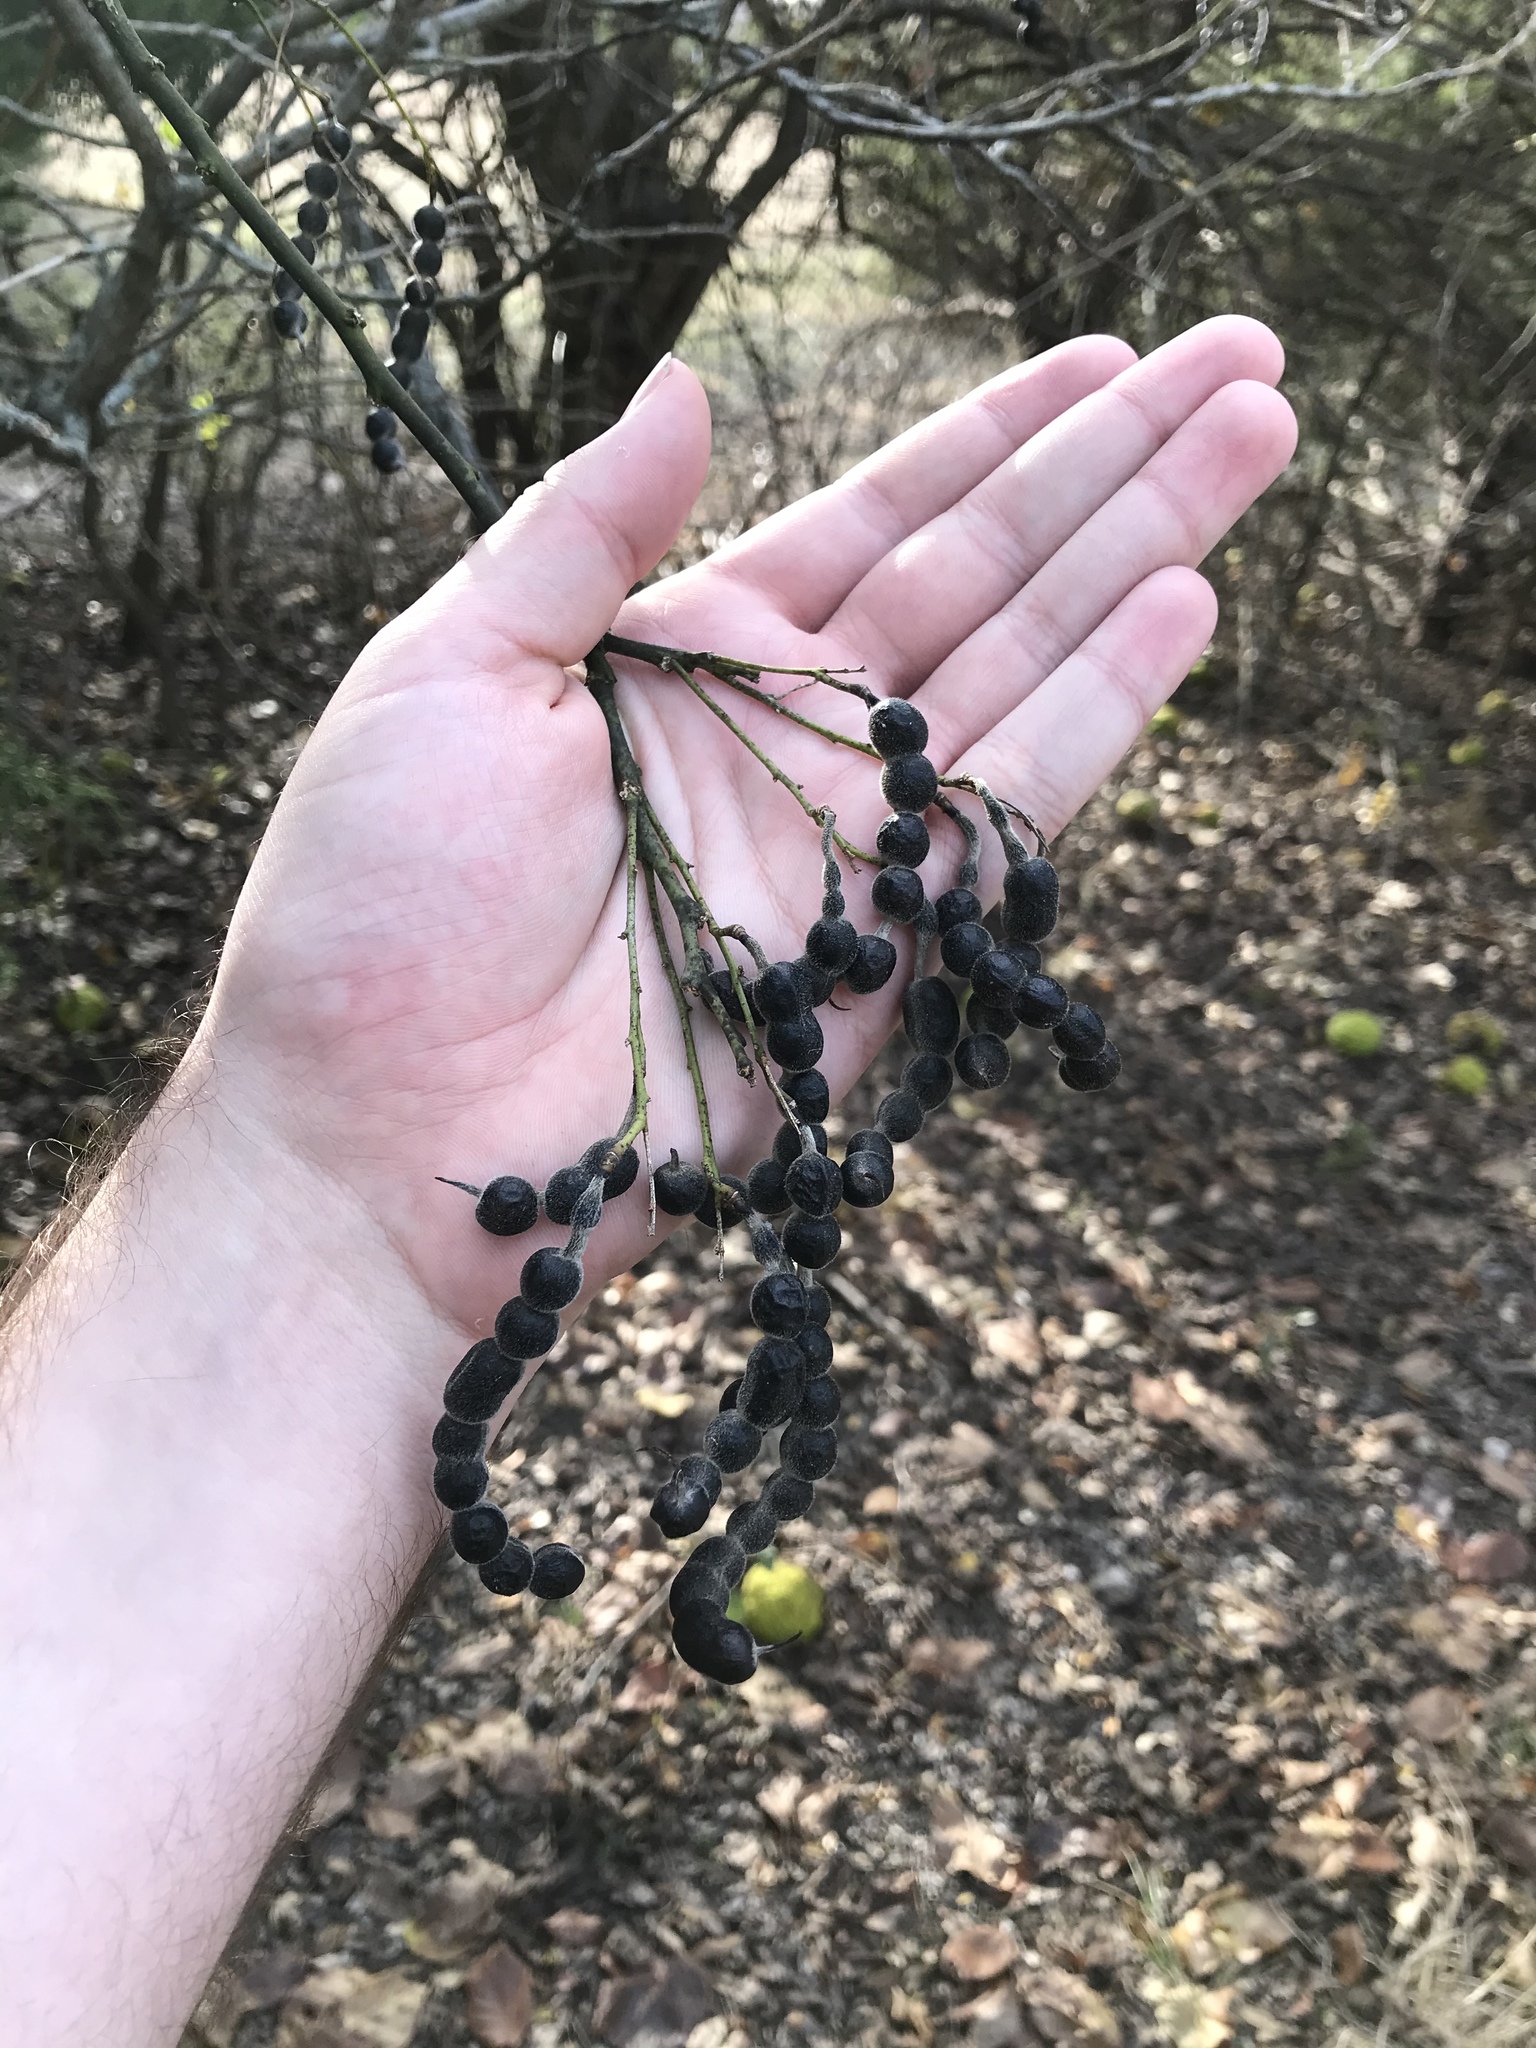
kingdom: Plantae
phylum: Tracheophyta
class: Magnoliopsida
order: Fabales
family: Fabaceae
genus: Styphnolobium
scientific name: Styphnolobium affine
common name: Texas sophora
